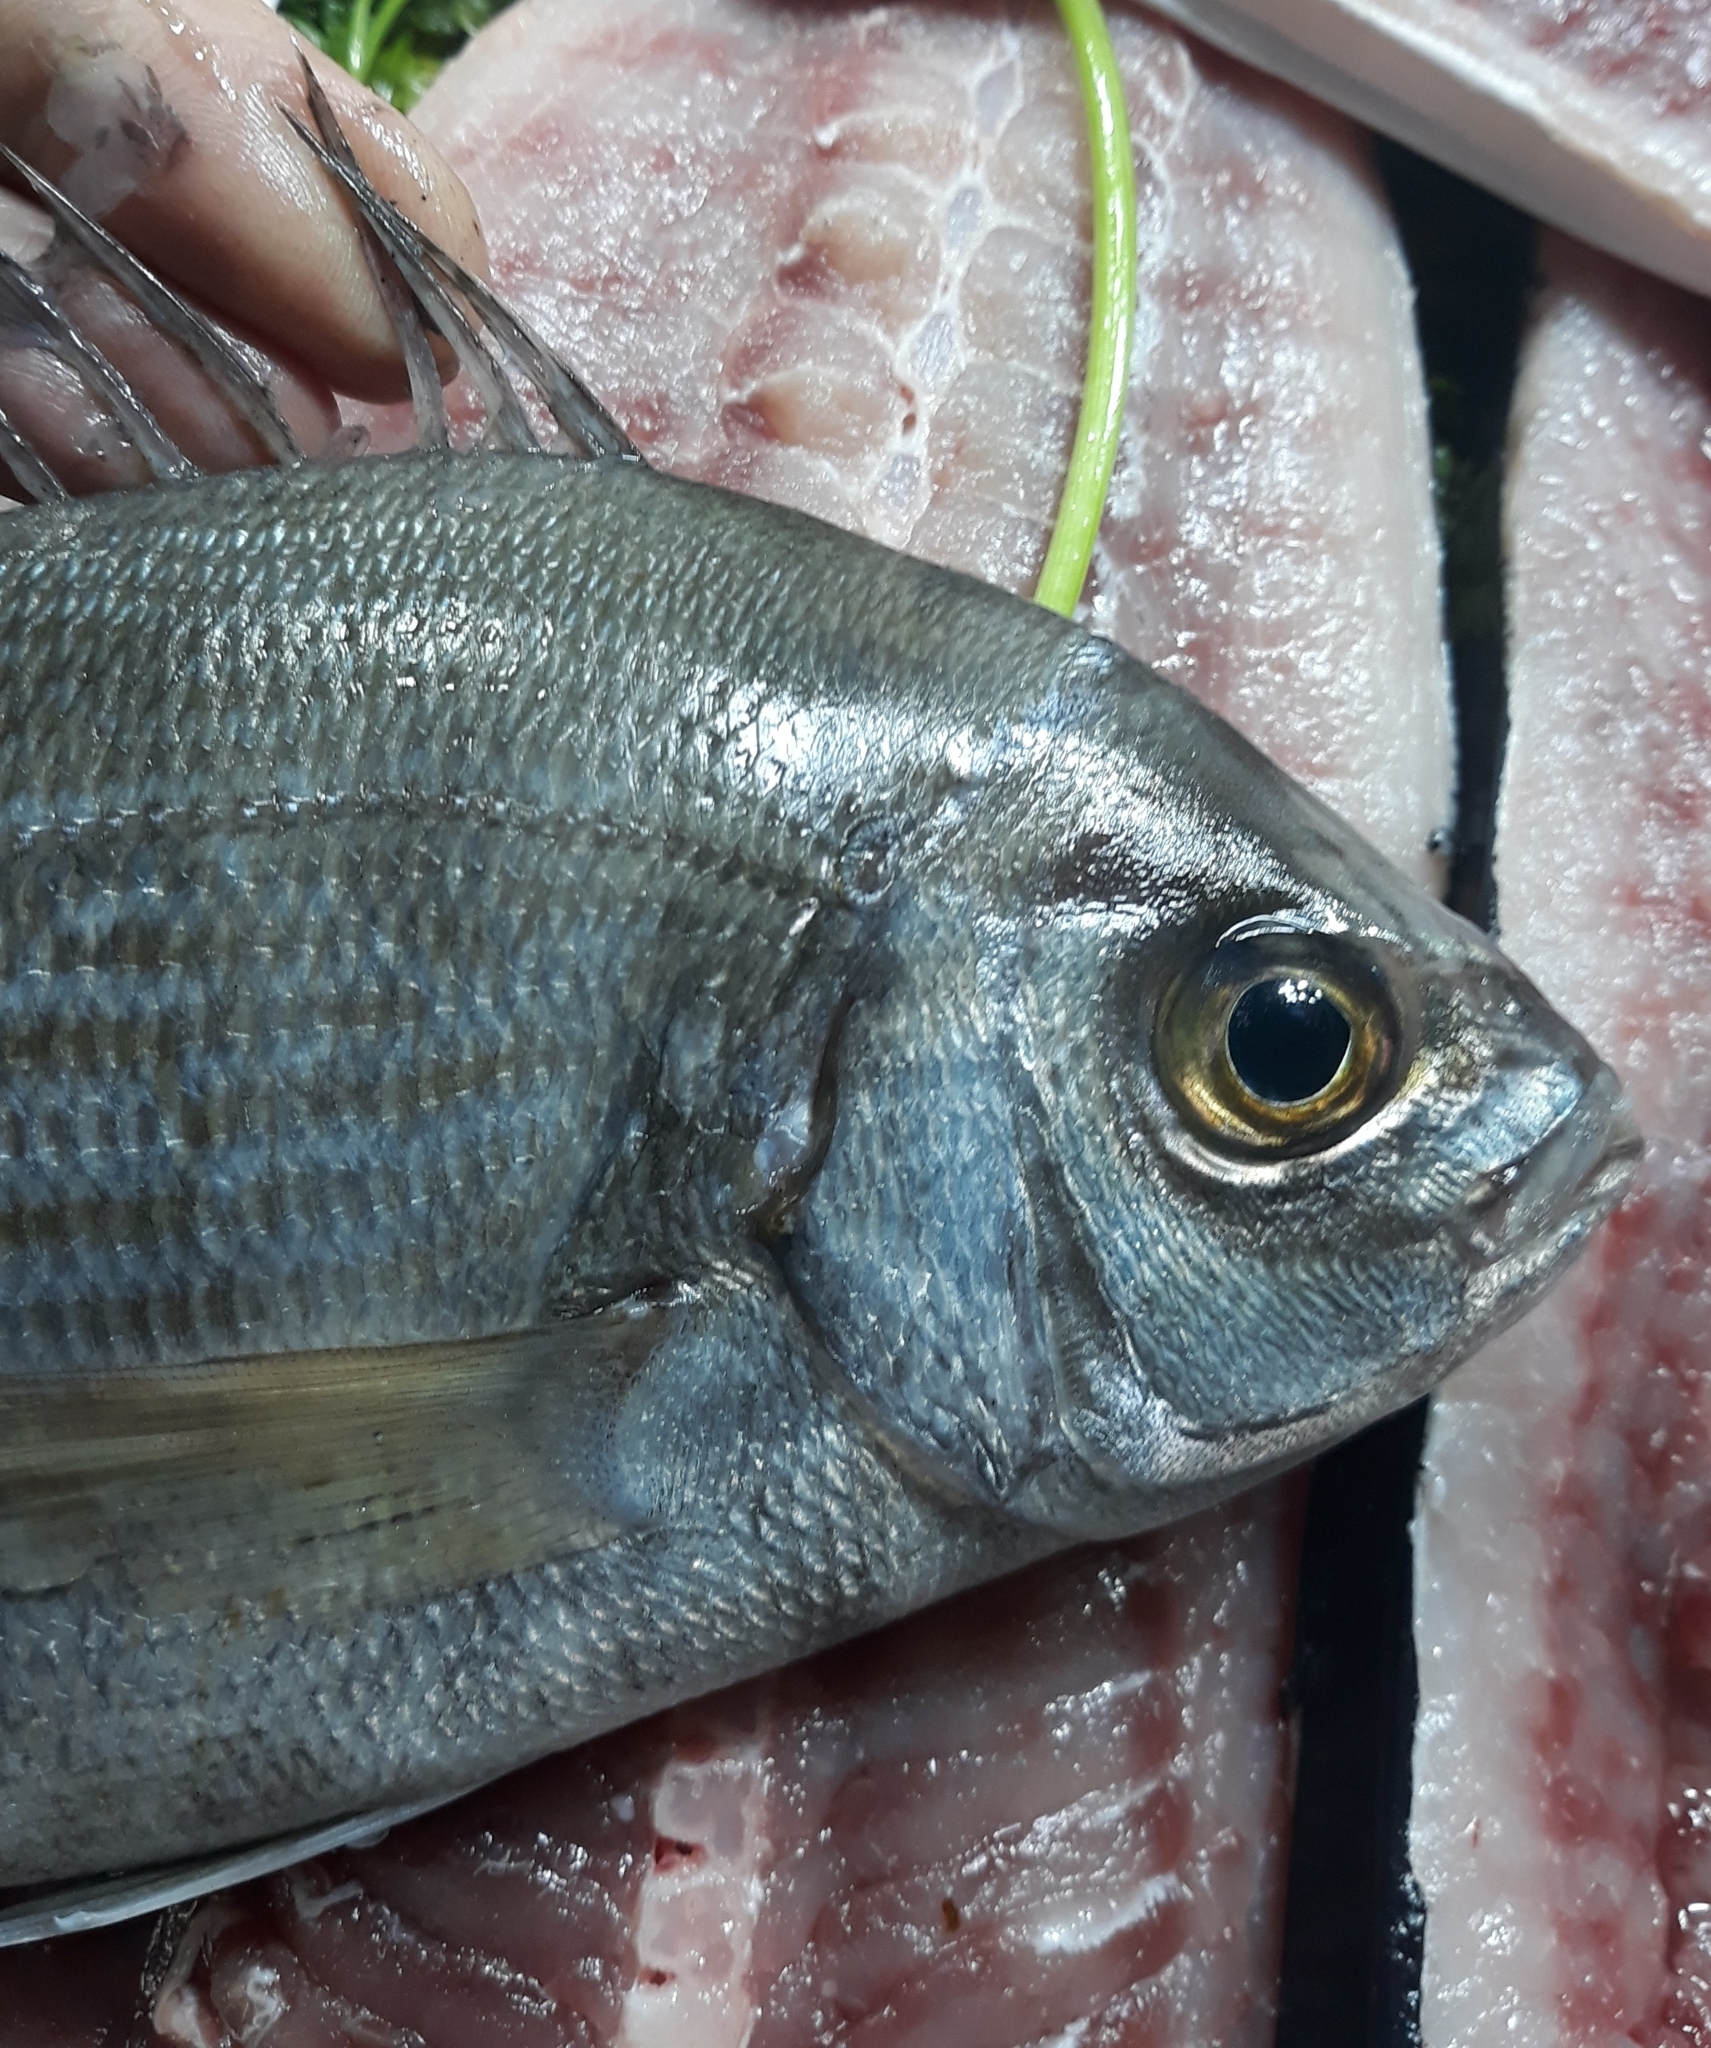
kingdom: Animalia
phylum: Chordata
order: Perciformes
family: Sparidae
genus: Spondyliosoma
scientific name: Spondyliosoma cantharus
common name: Black seabream
